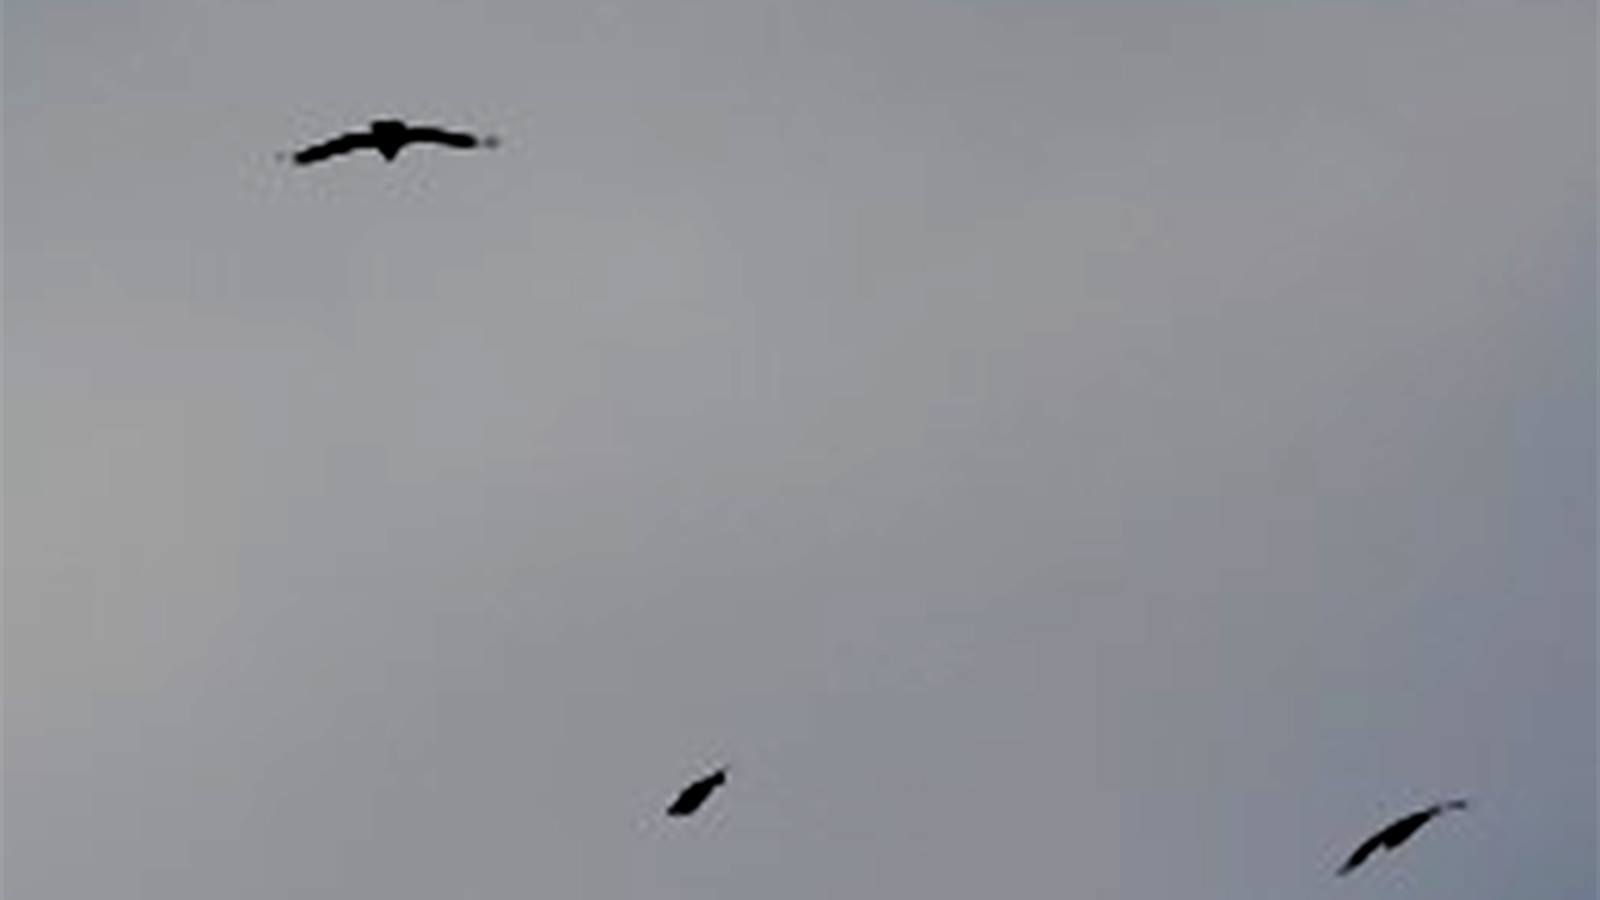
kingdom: Animalia
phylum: Chordata
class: Aves
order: Accipitriformes
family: Accipitridae
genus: Aegypius
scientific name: Aegypius monachus
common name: Cinereous vulture
